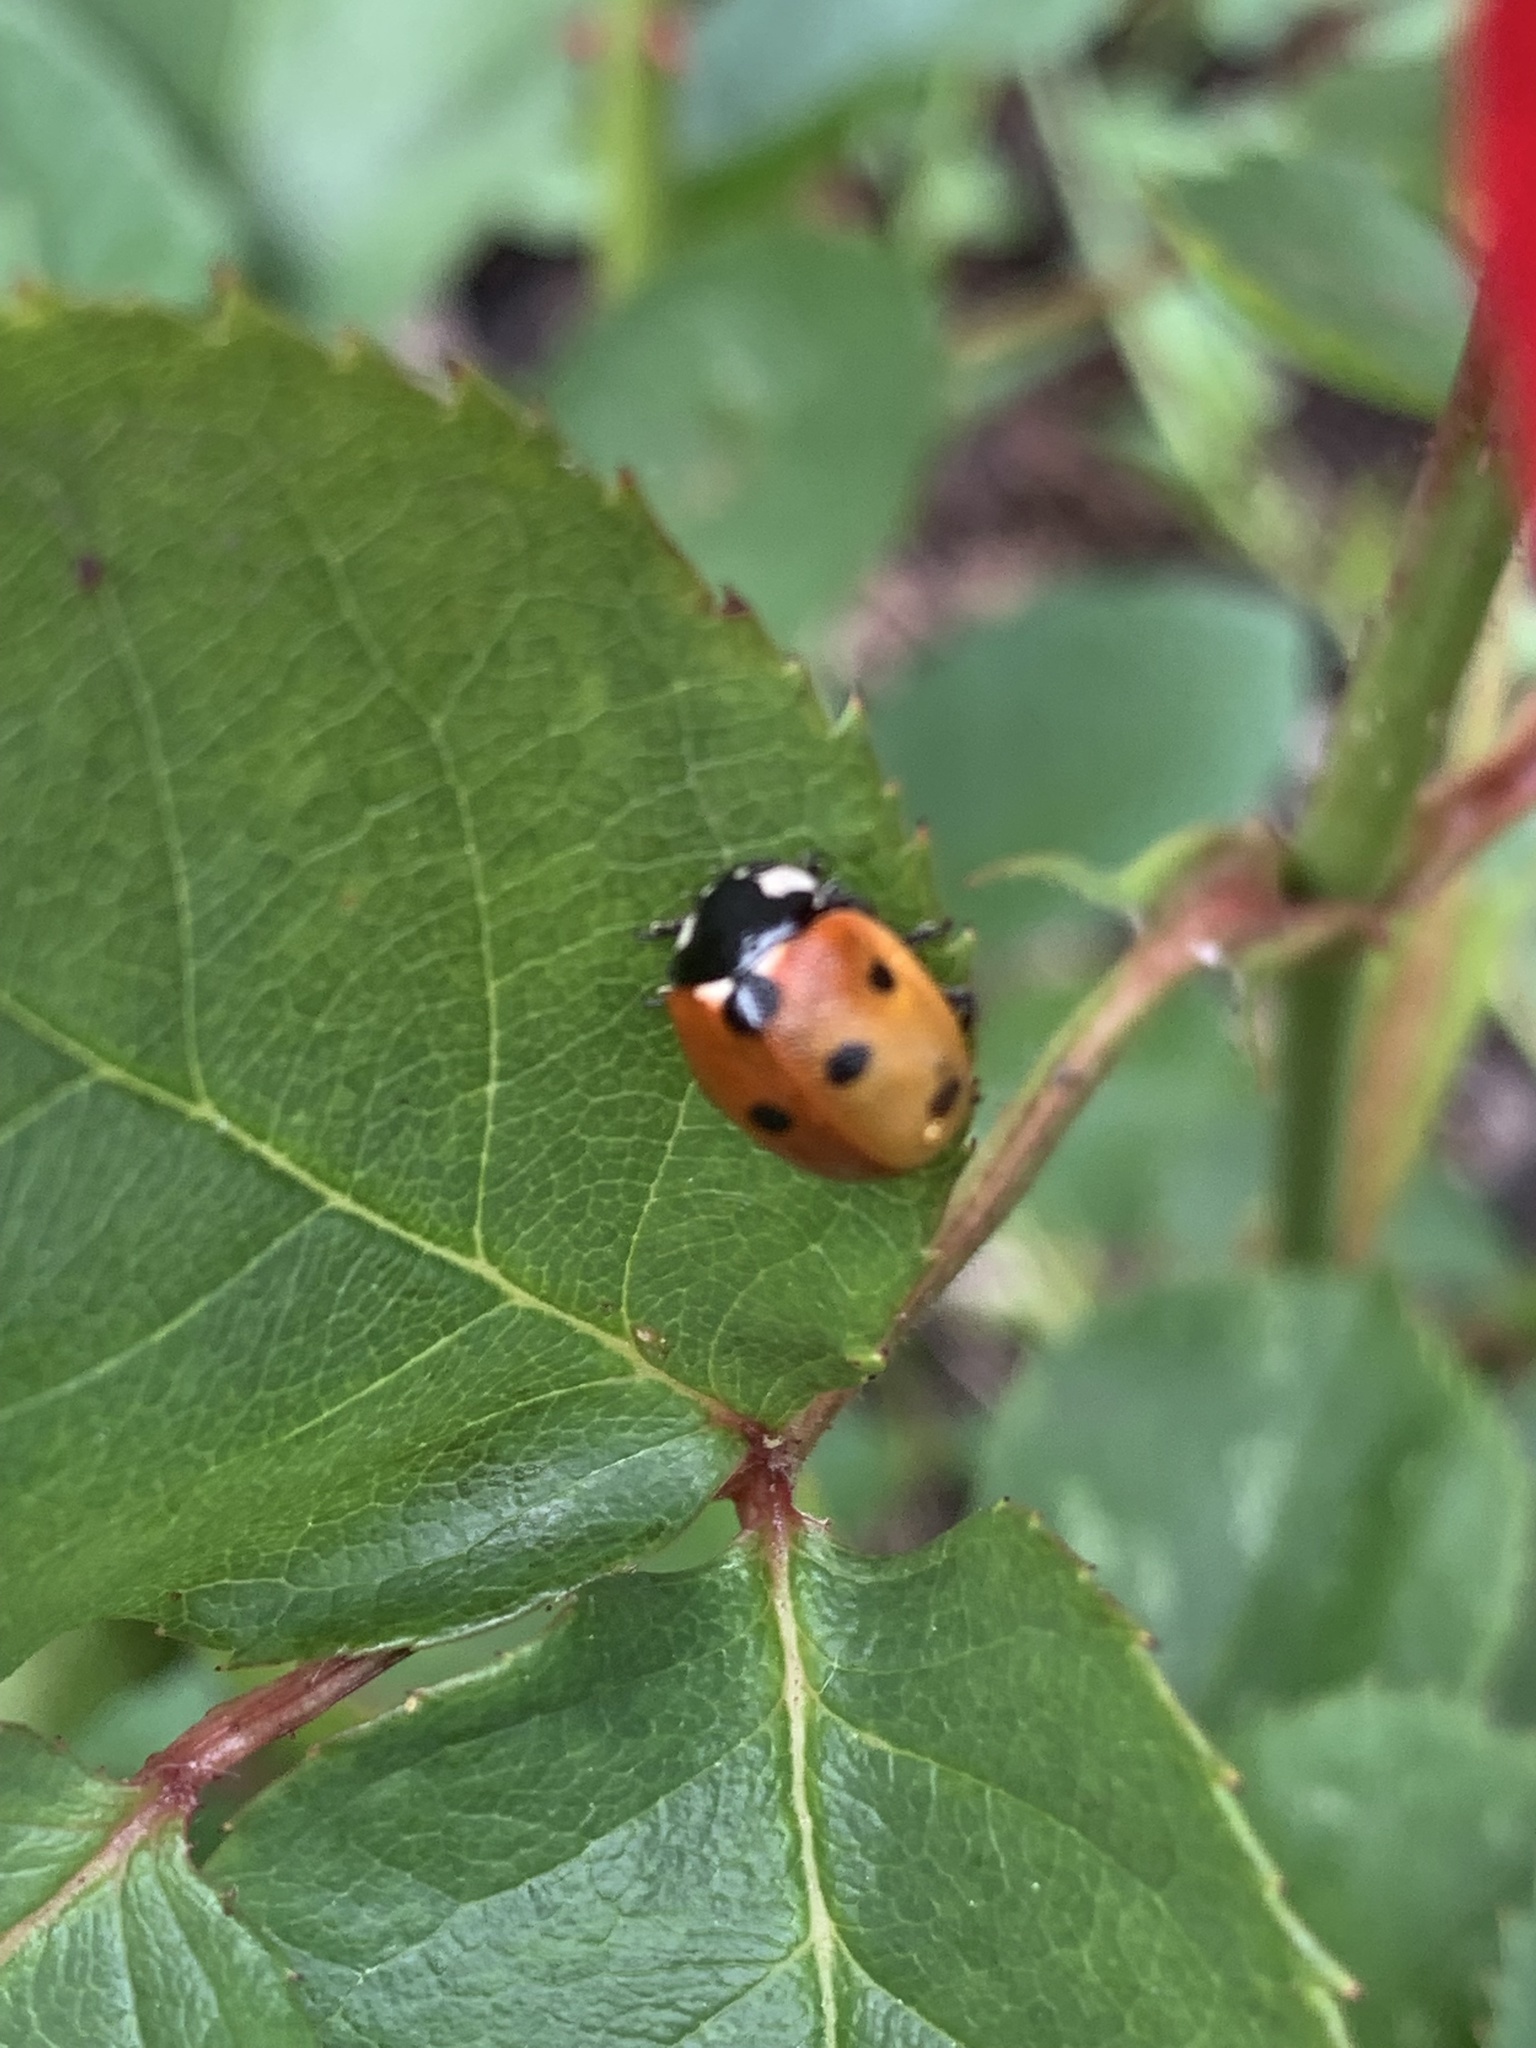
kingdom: Animalia
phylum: Arthropoda
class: Insecta
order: Coleoptera
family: Coccinellidae
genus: Coccinella
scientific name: Coccinella septempunctata
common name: Sevenspotted lady beetle
